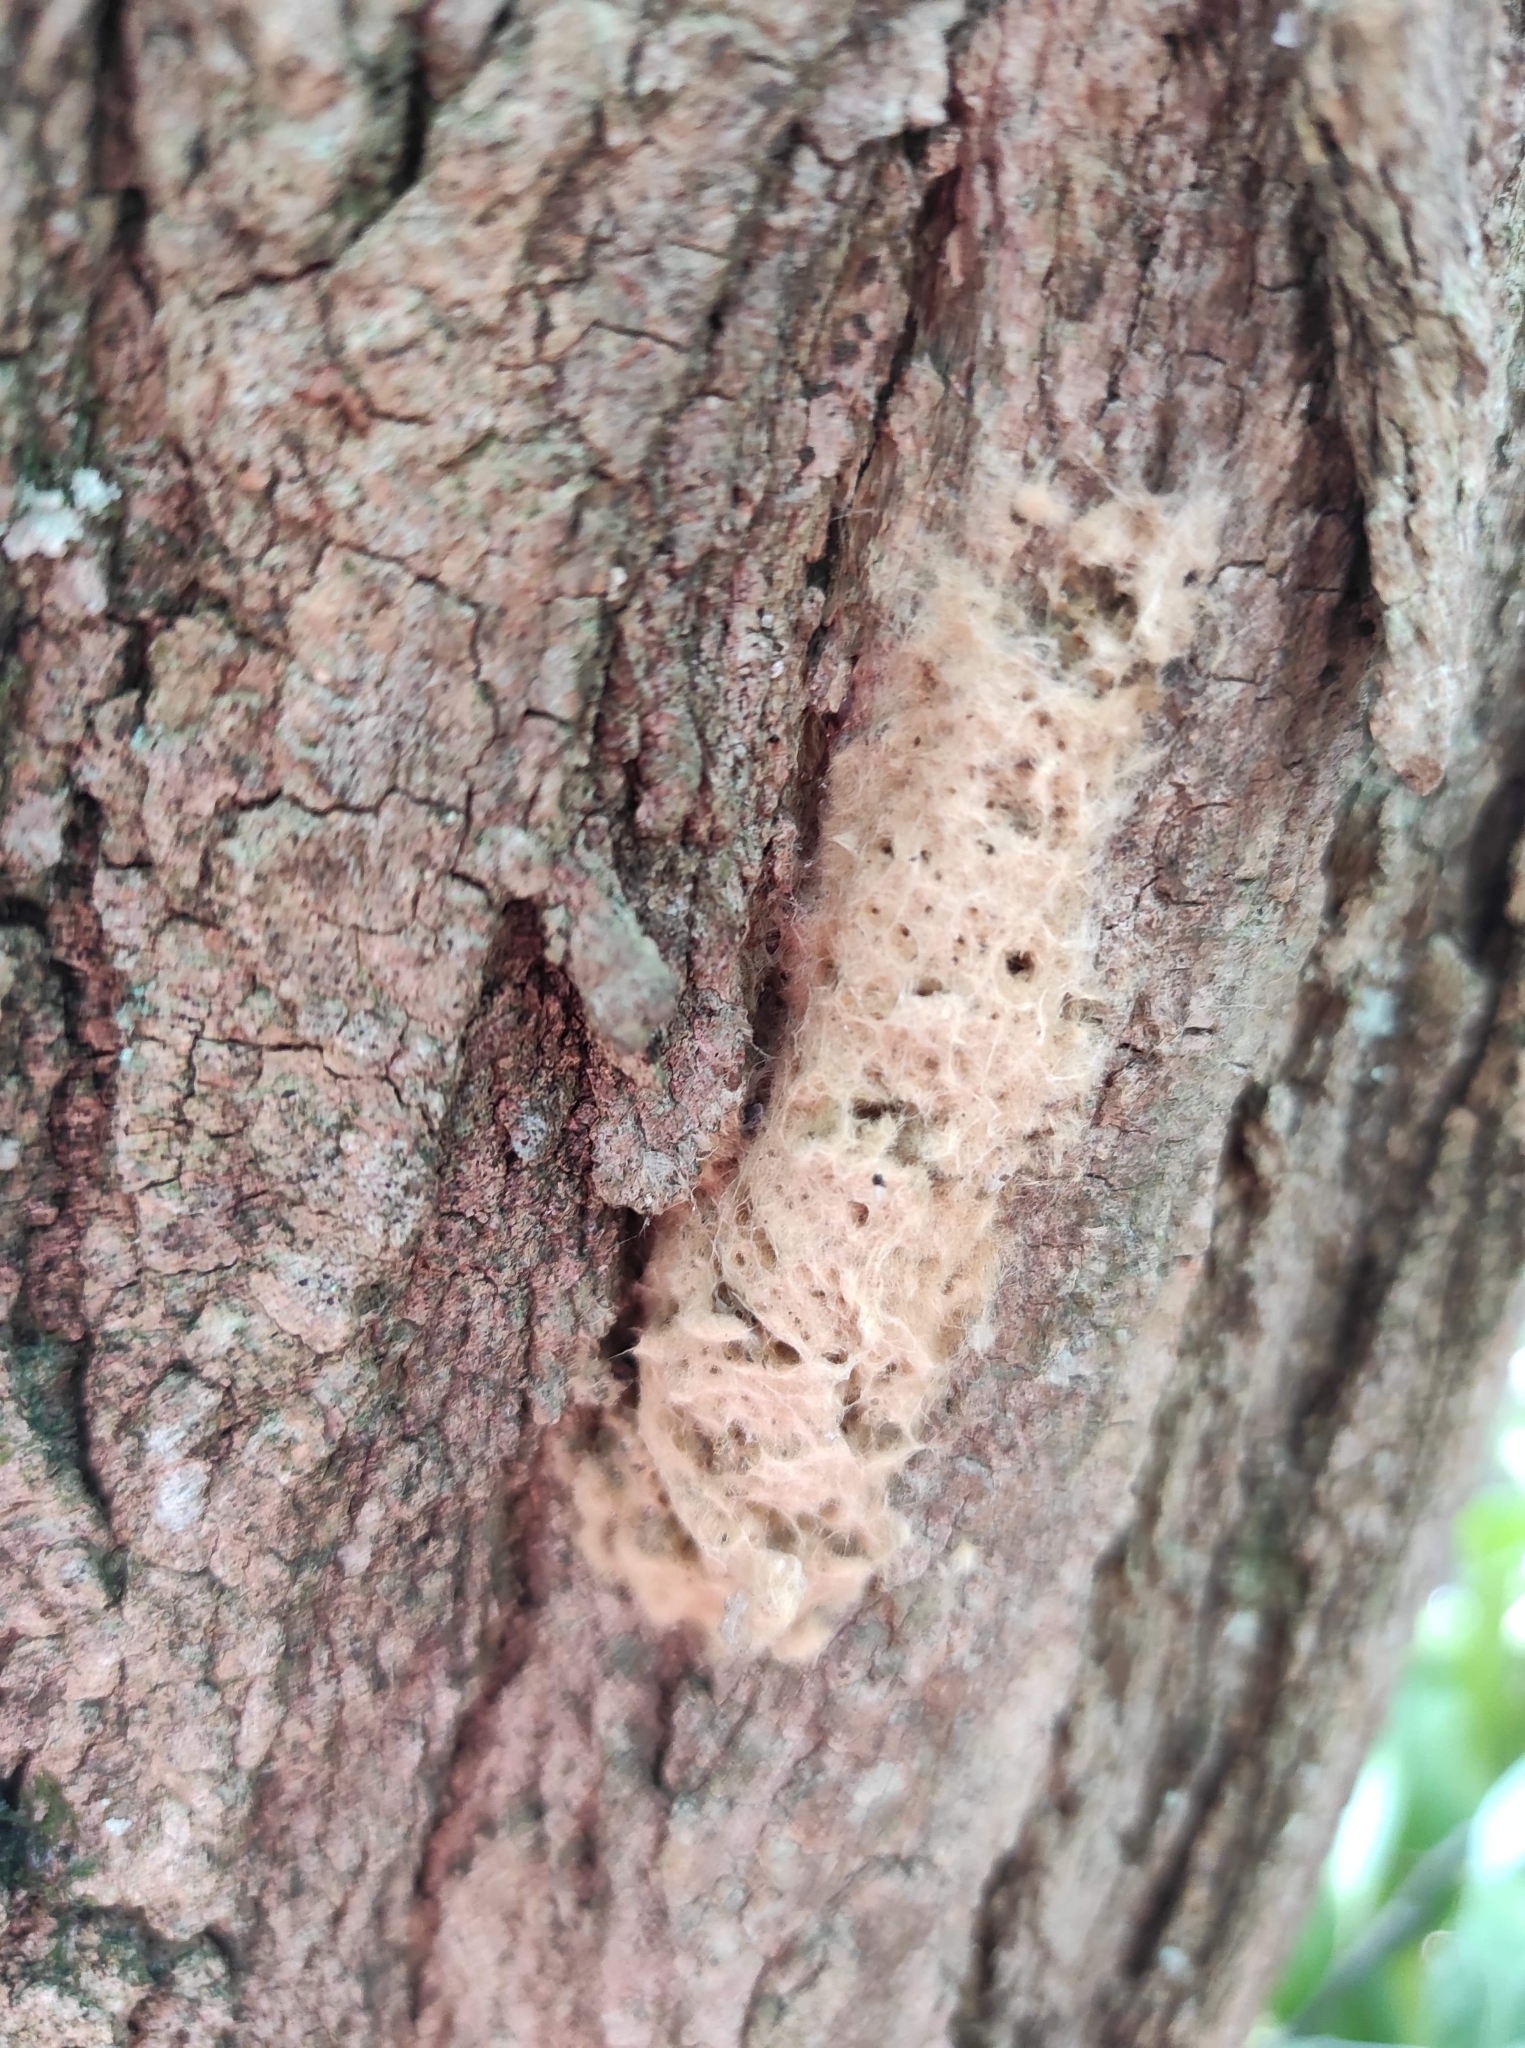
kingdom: Animalia
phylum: Arthropoda
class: Insecta
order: Lepidoptera
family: Erebidae
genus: Lymantria
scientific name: Lymantria dispar
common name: Gypsy moth
